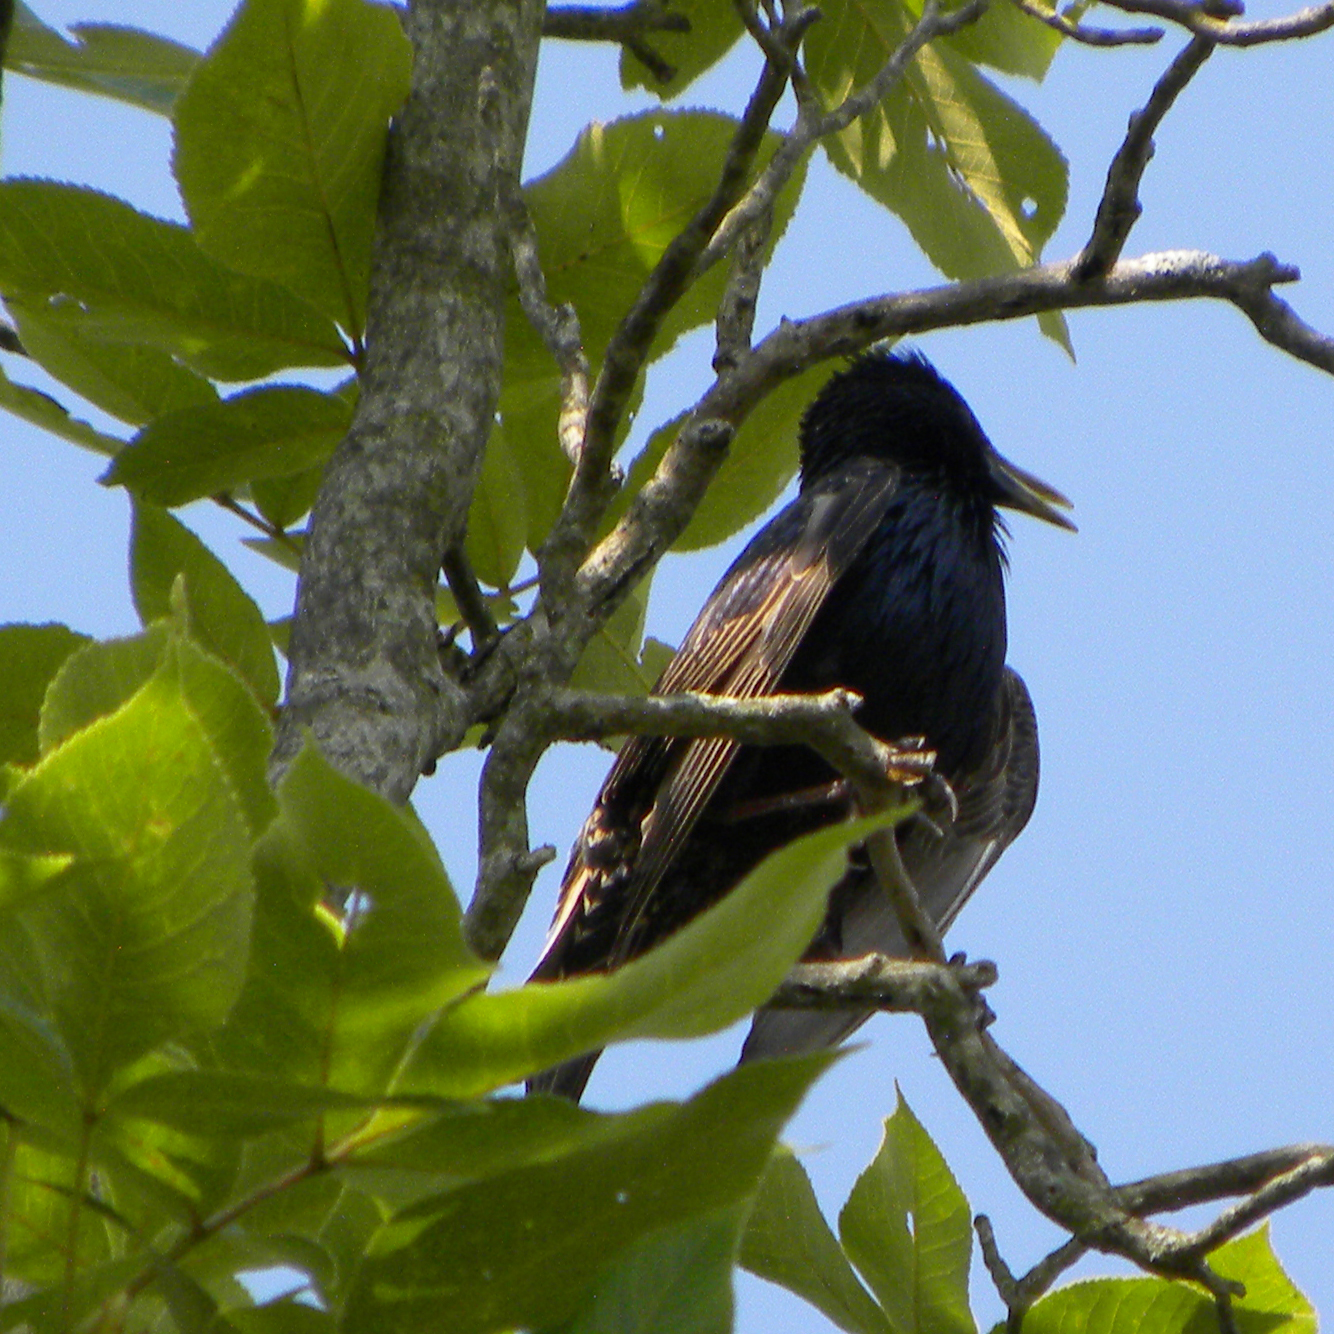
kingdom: Animalia
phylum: Chordata
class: Aves
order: Passeriformes
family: Sturnidae
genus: Sturnus
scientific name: Sturnus vulgaris
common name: Common starling
